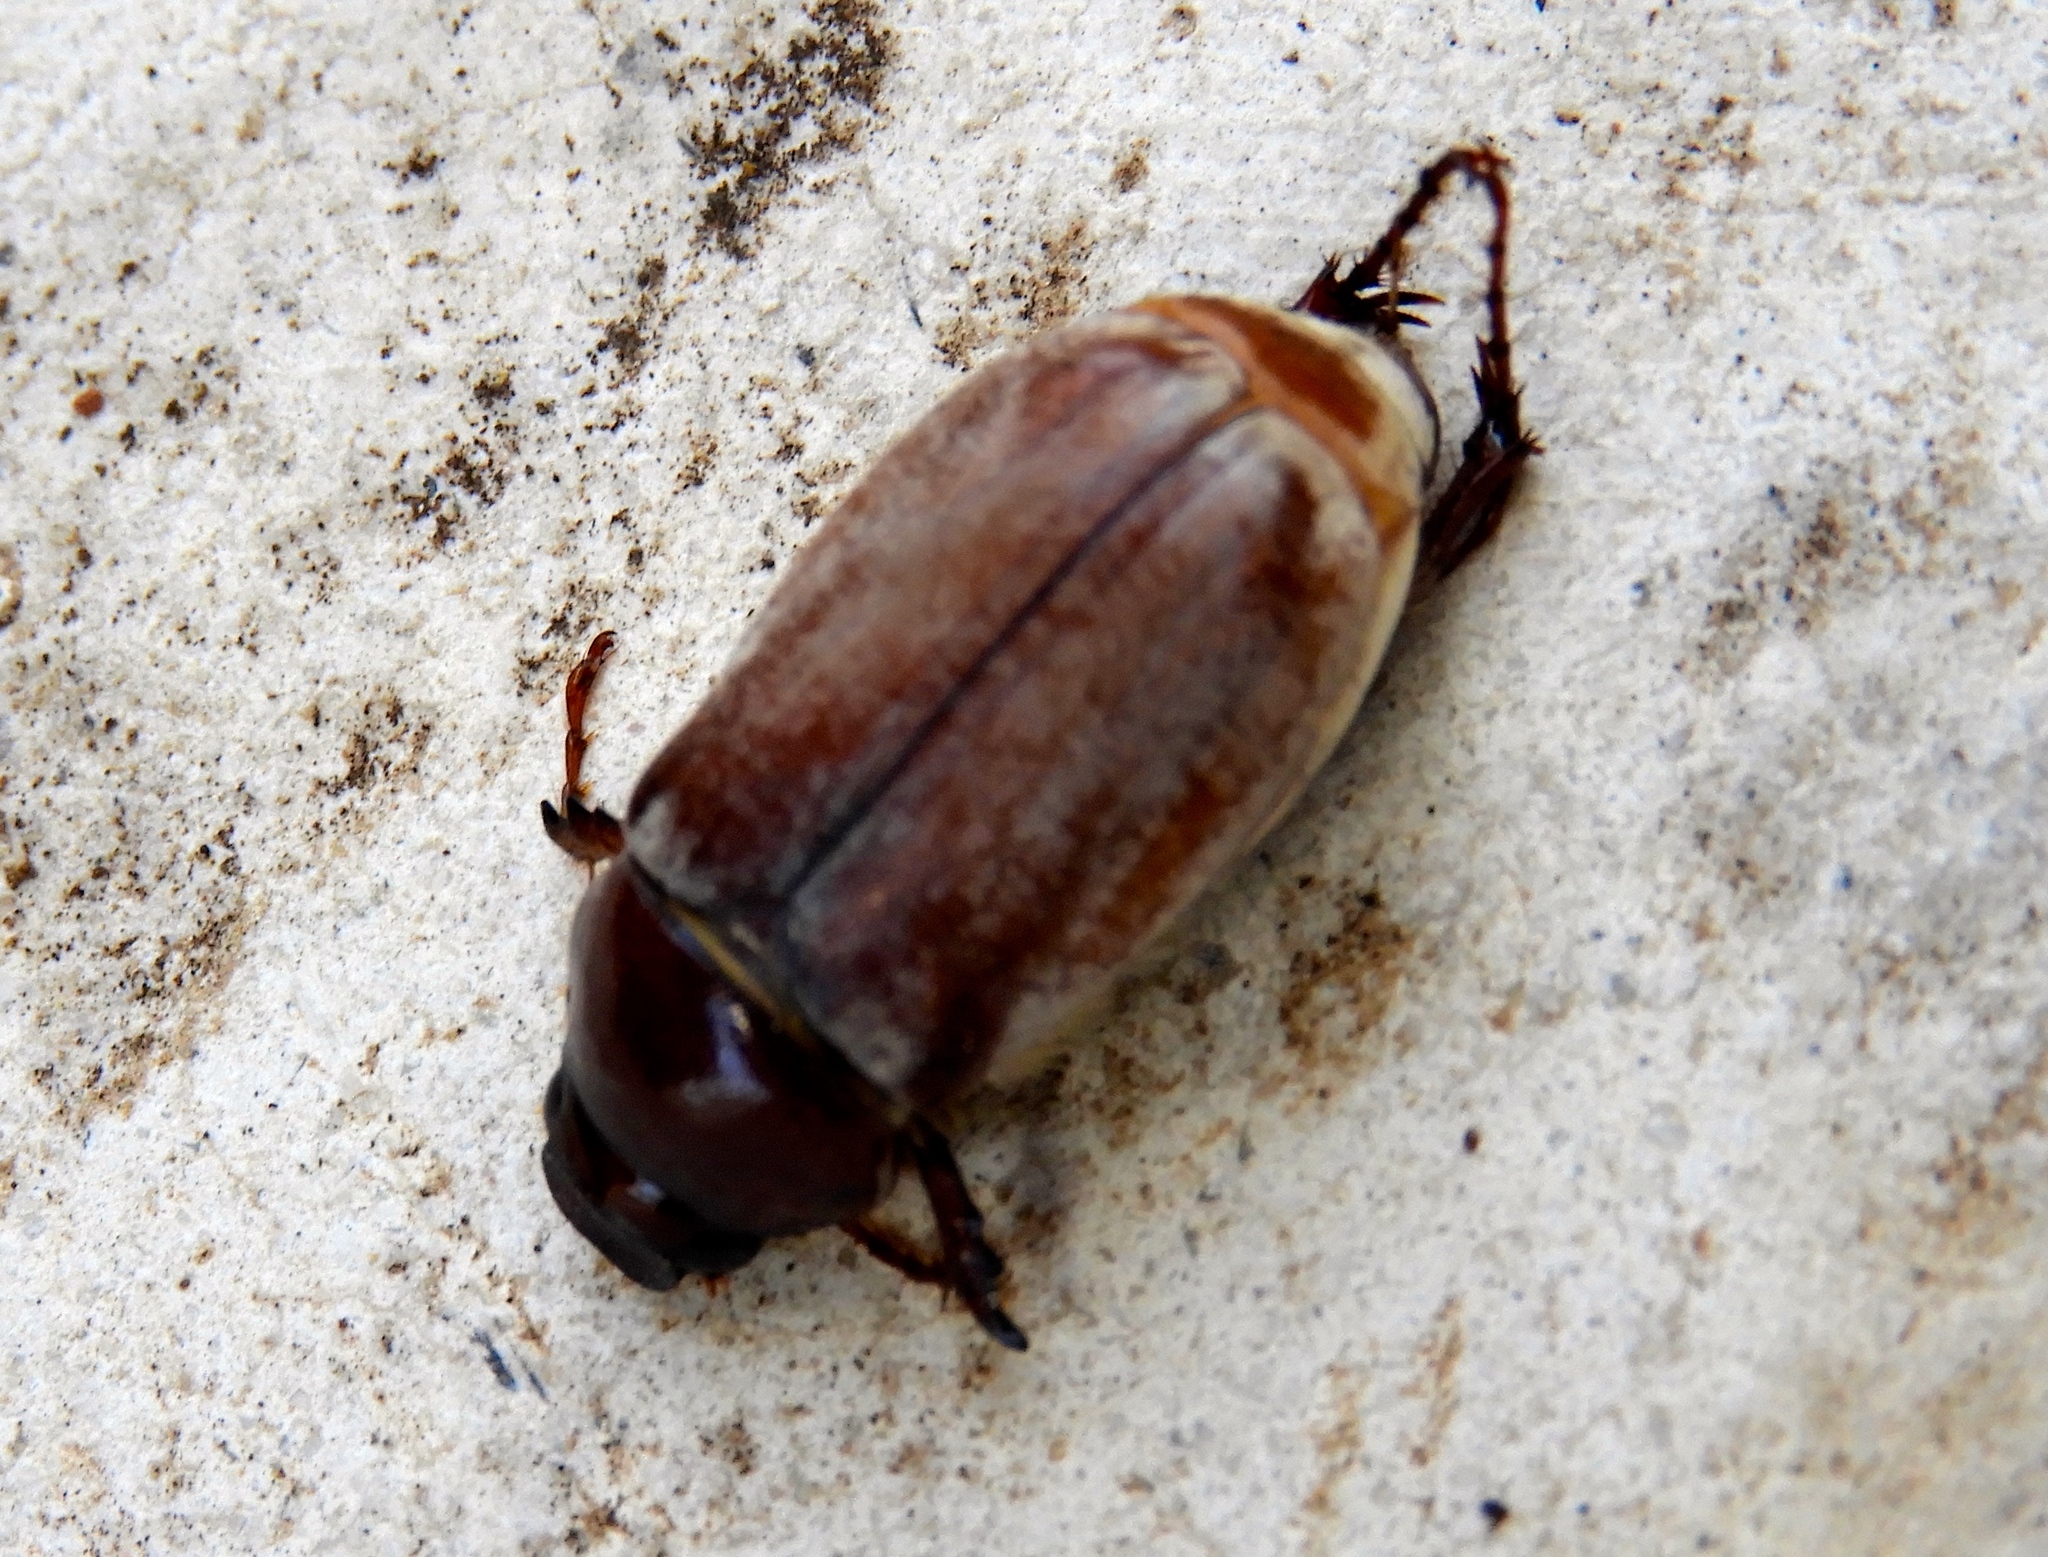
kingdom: Animalia
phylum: Arthropoda
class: Insecta
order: Coleoptera
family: Scarabaeidae
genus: Phyllophaga
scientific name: Phyllophaga
